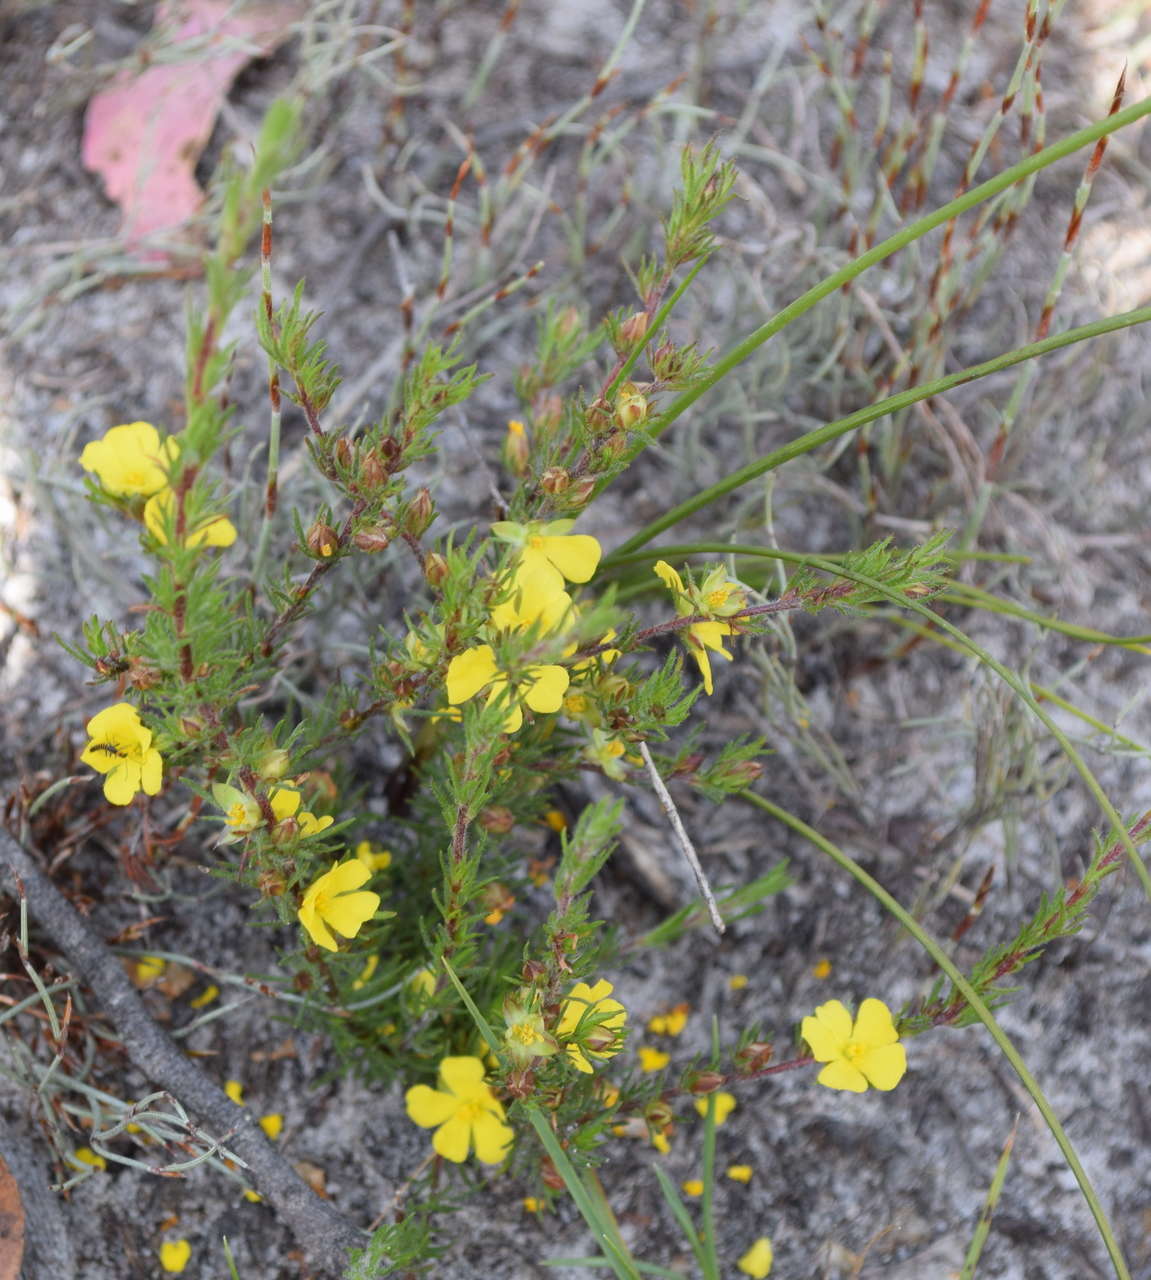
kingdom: Plantae
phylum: Tracheophyta
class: Magnoliopsida
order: Dilleniales
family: Dilleniaceae
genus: Hibbertia
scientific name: Hibbertia prostrata
